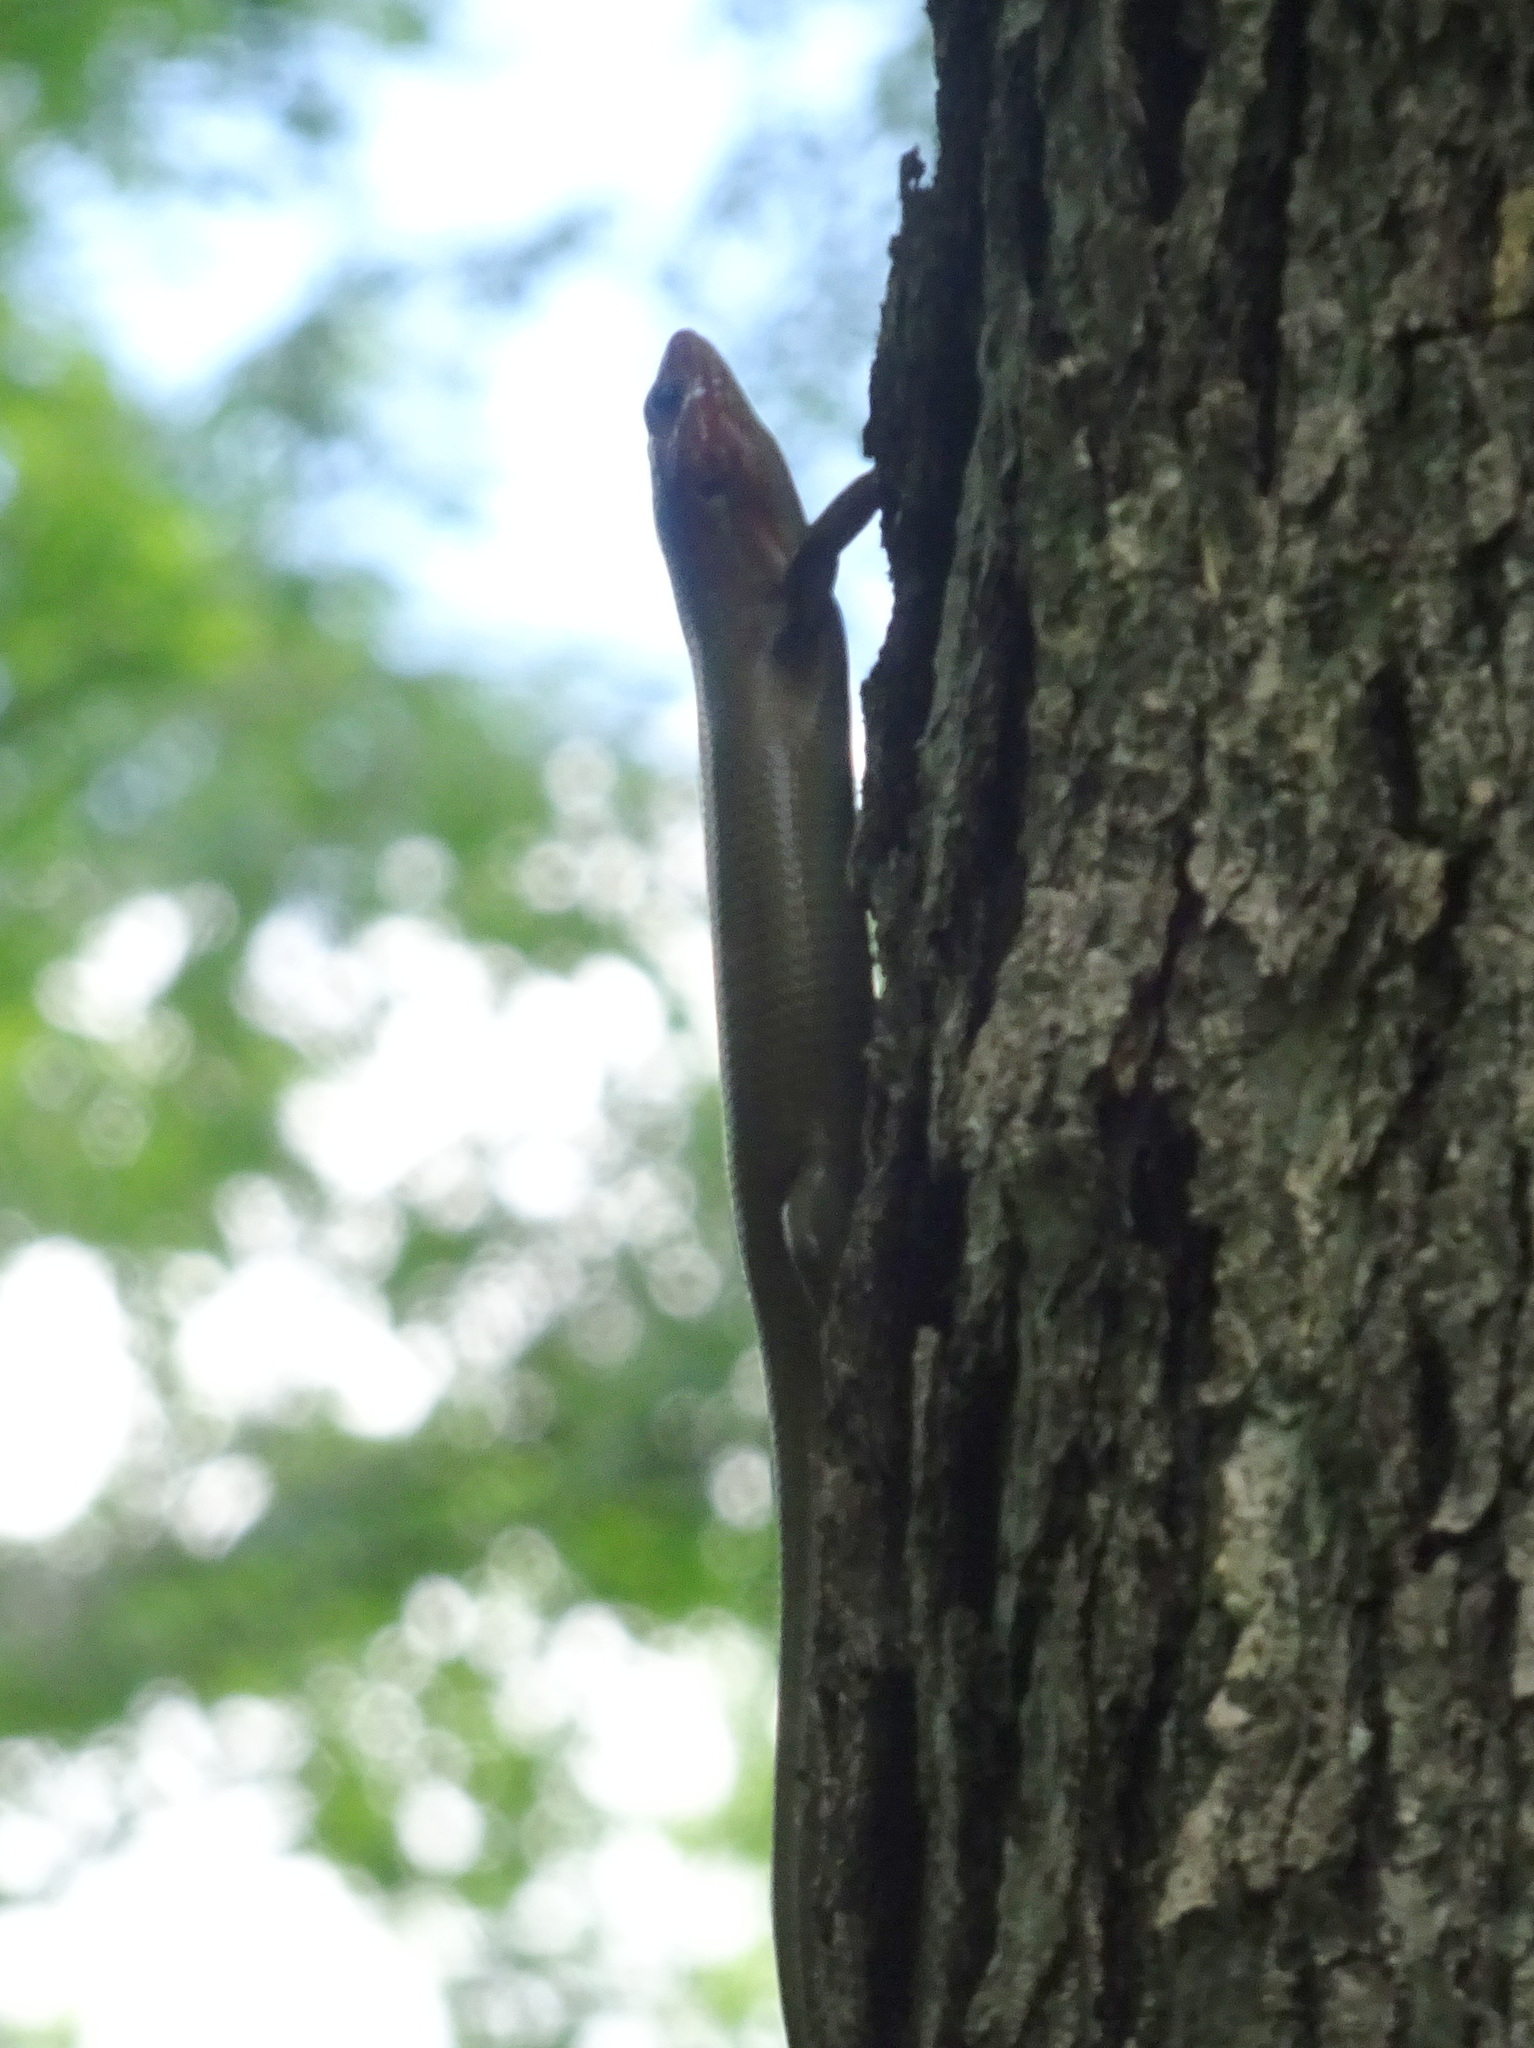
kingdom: Animalia
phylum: Chordata
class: Squamata
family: Scincidae
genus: Plestiodon
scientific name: Plestiodon laticeps
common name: Broadhead skink
